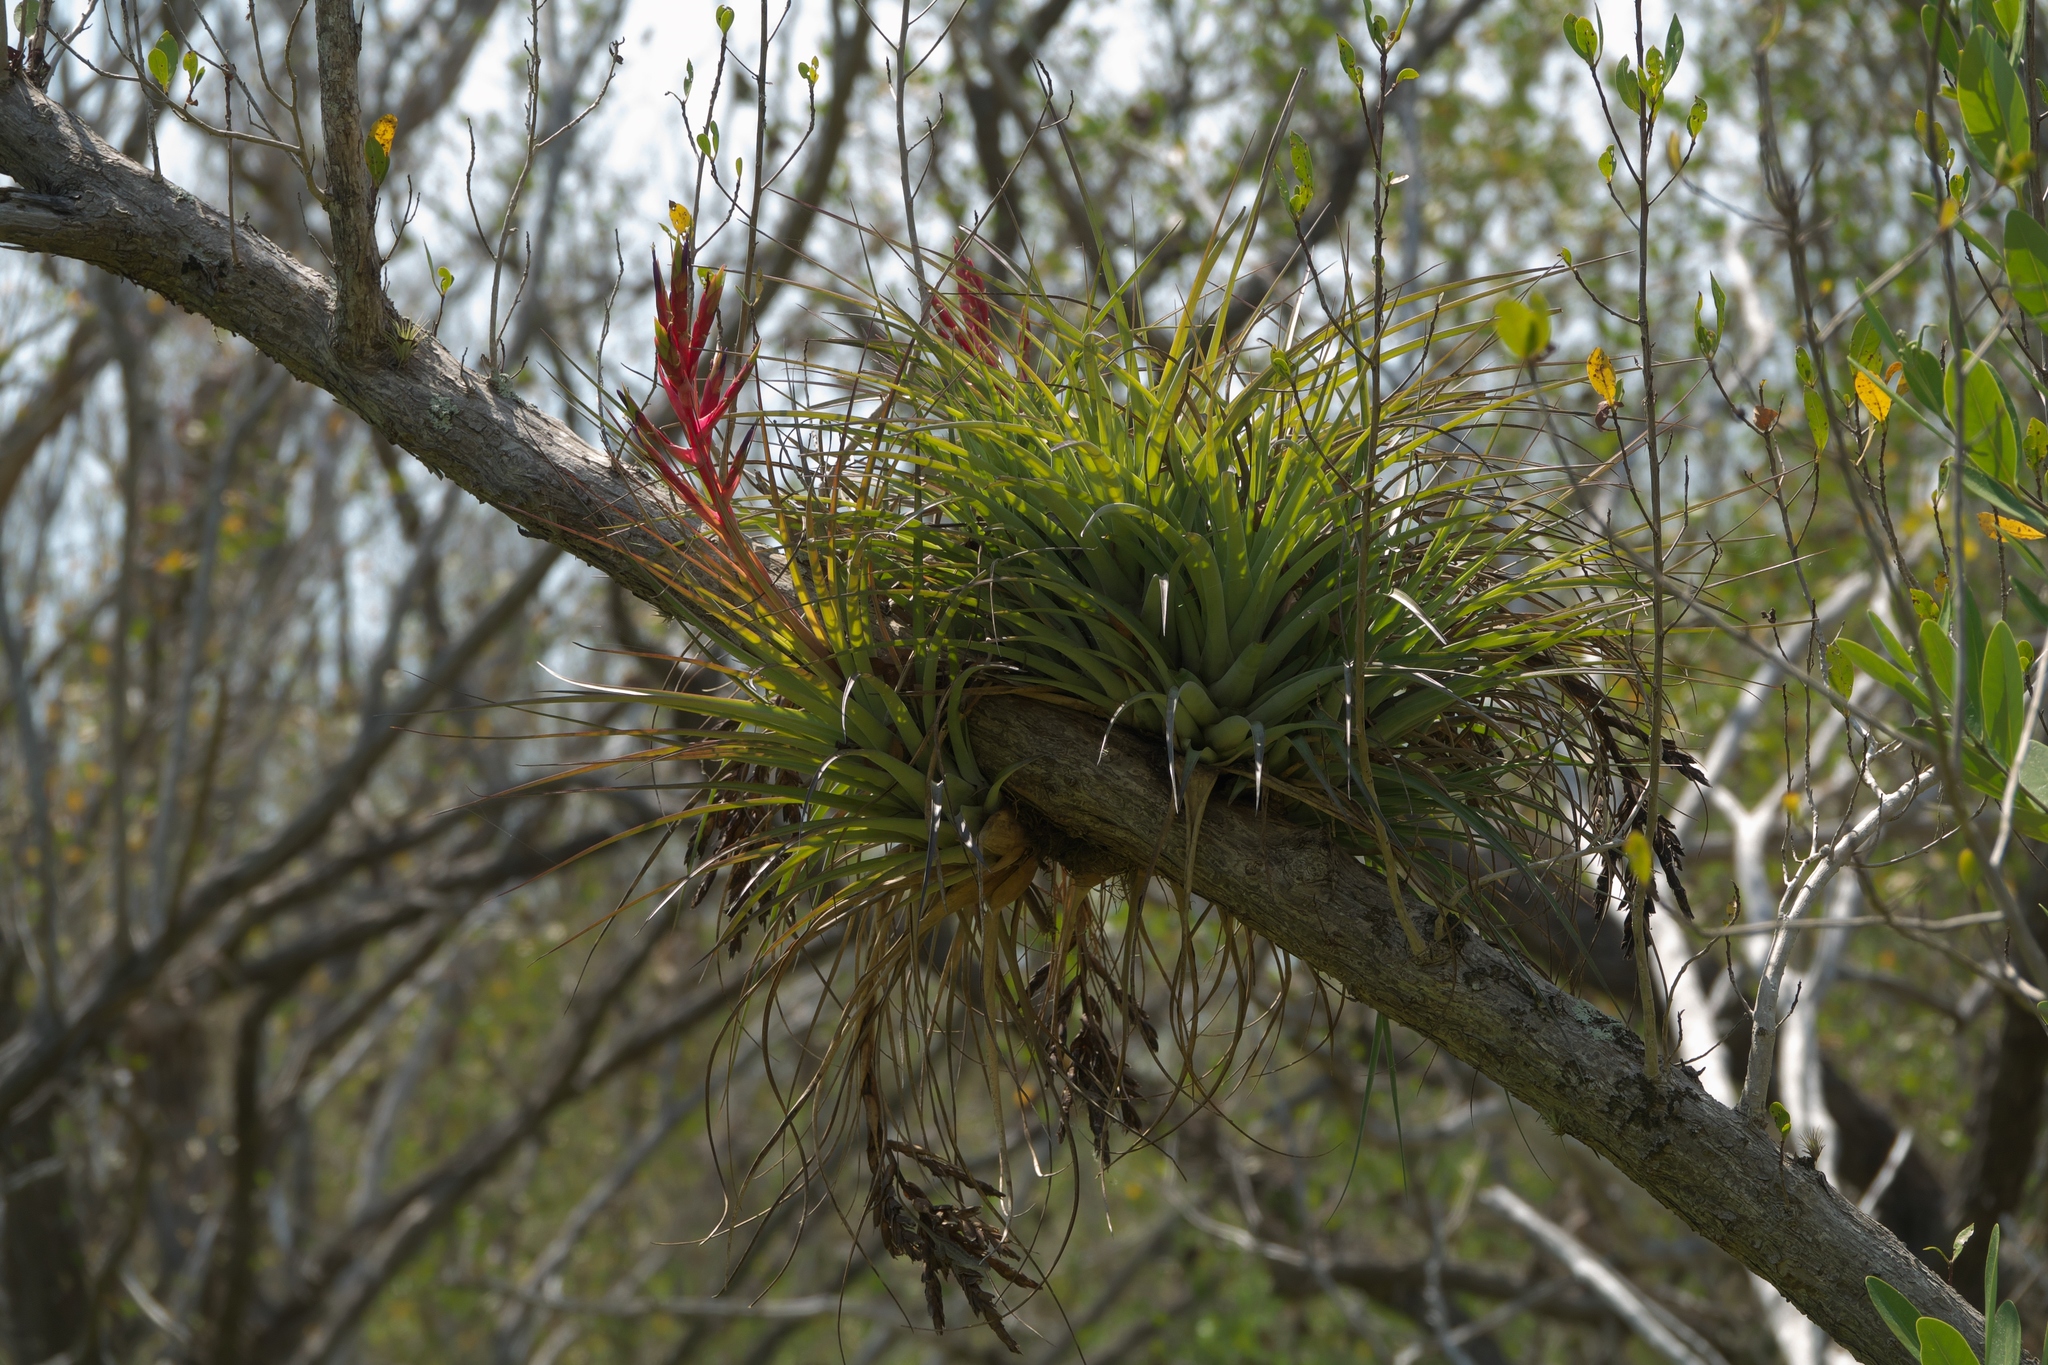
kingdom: Plantae
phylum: Tracheophyta
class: Liliopsida
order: Poales
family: Bromeliaceae
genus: Tillandsia
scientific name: Tillandsia fasciculata
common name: Giant airplant
